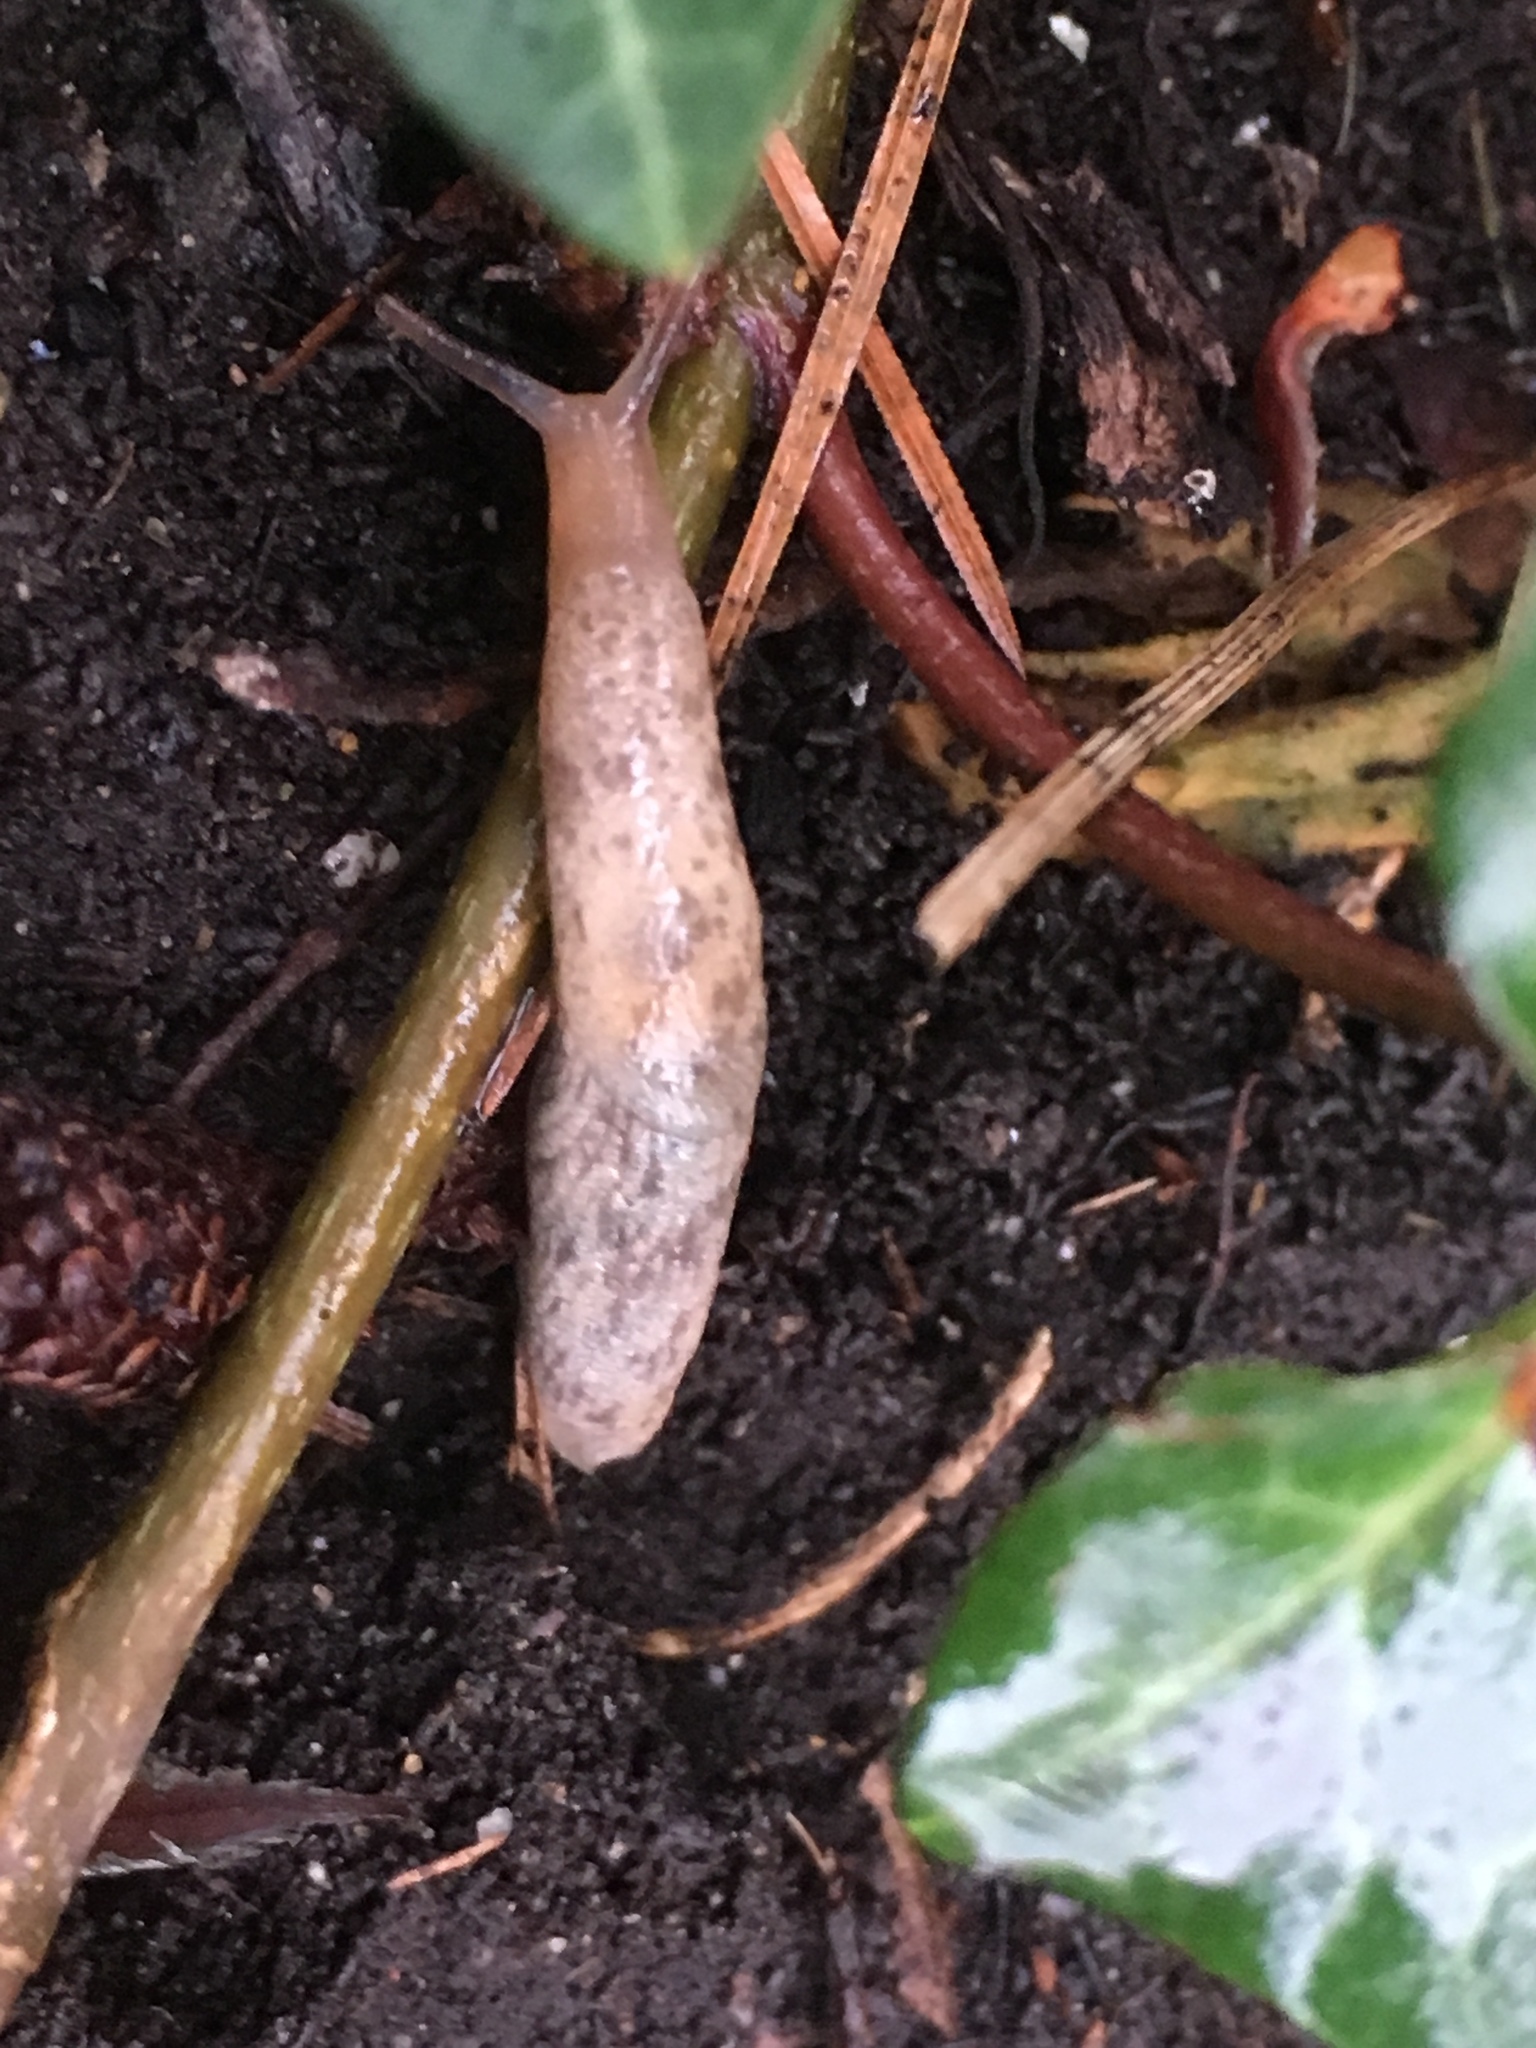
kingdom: Animalia
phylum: Mollusca
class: Gastropoda
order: Stylommatophora
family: Agriolimacidae
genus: Deroceras
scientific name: Deroceras reticulatum
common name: Gray field slug
